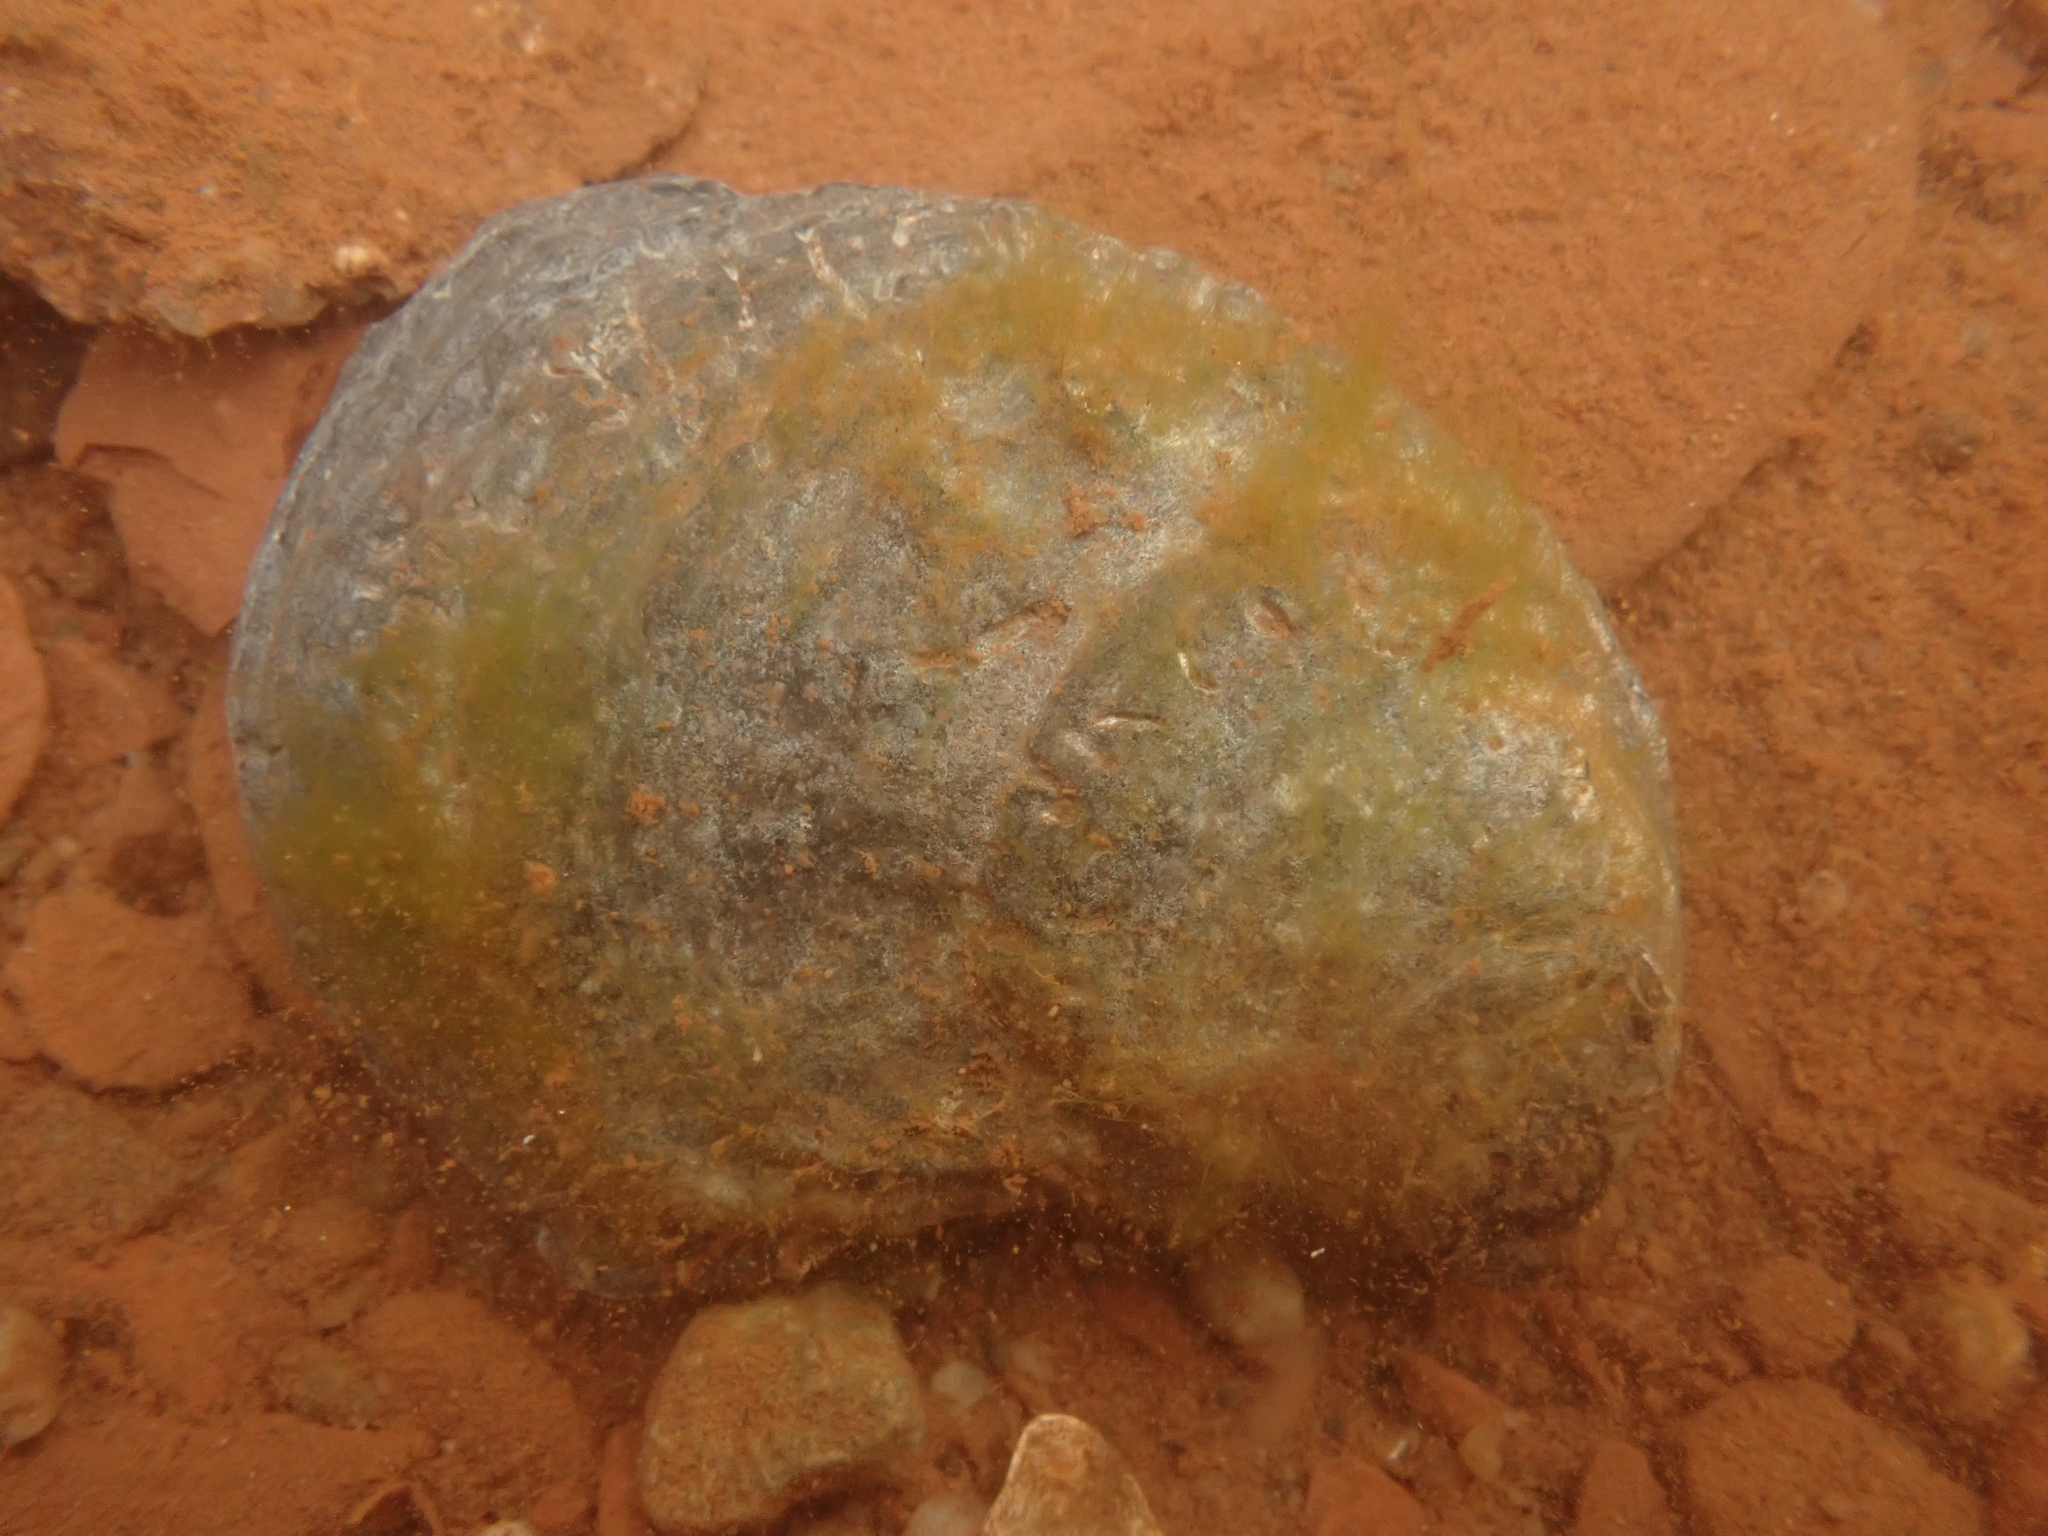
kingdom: Animalia
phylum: Mollusca
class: Bivalvia
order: Ostreida
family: Ostreidae
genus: Crassostrea
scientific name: Crassostrea virginica
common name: American oyster
